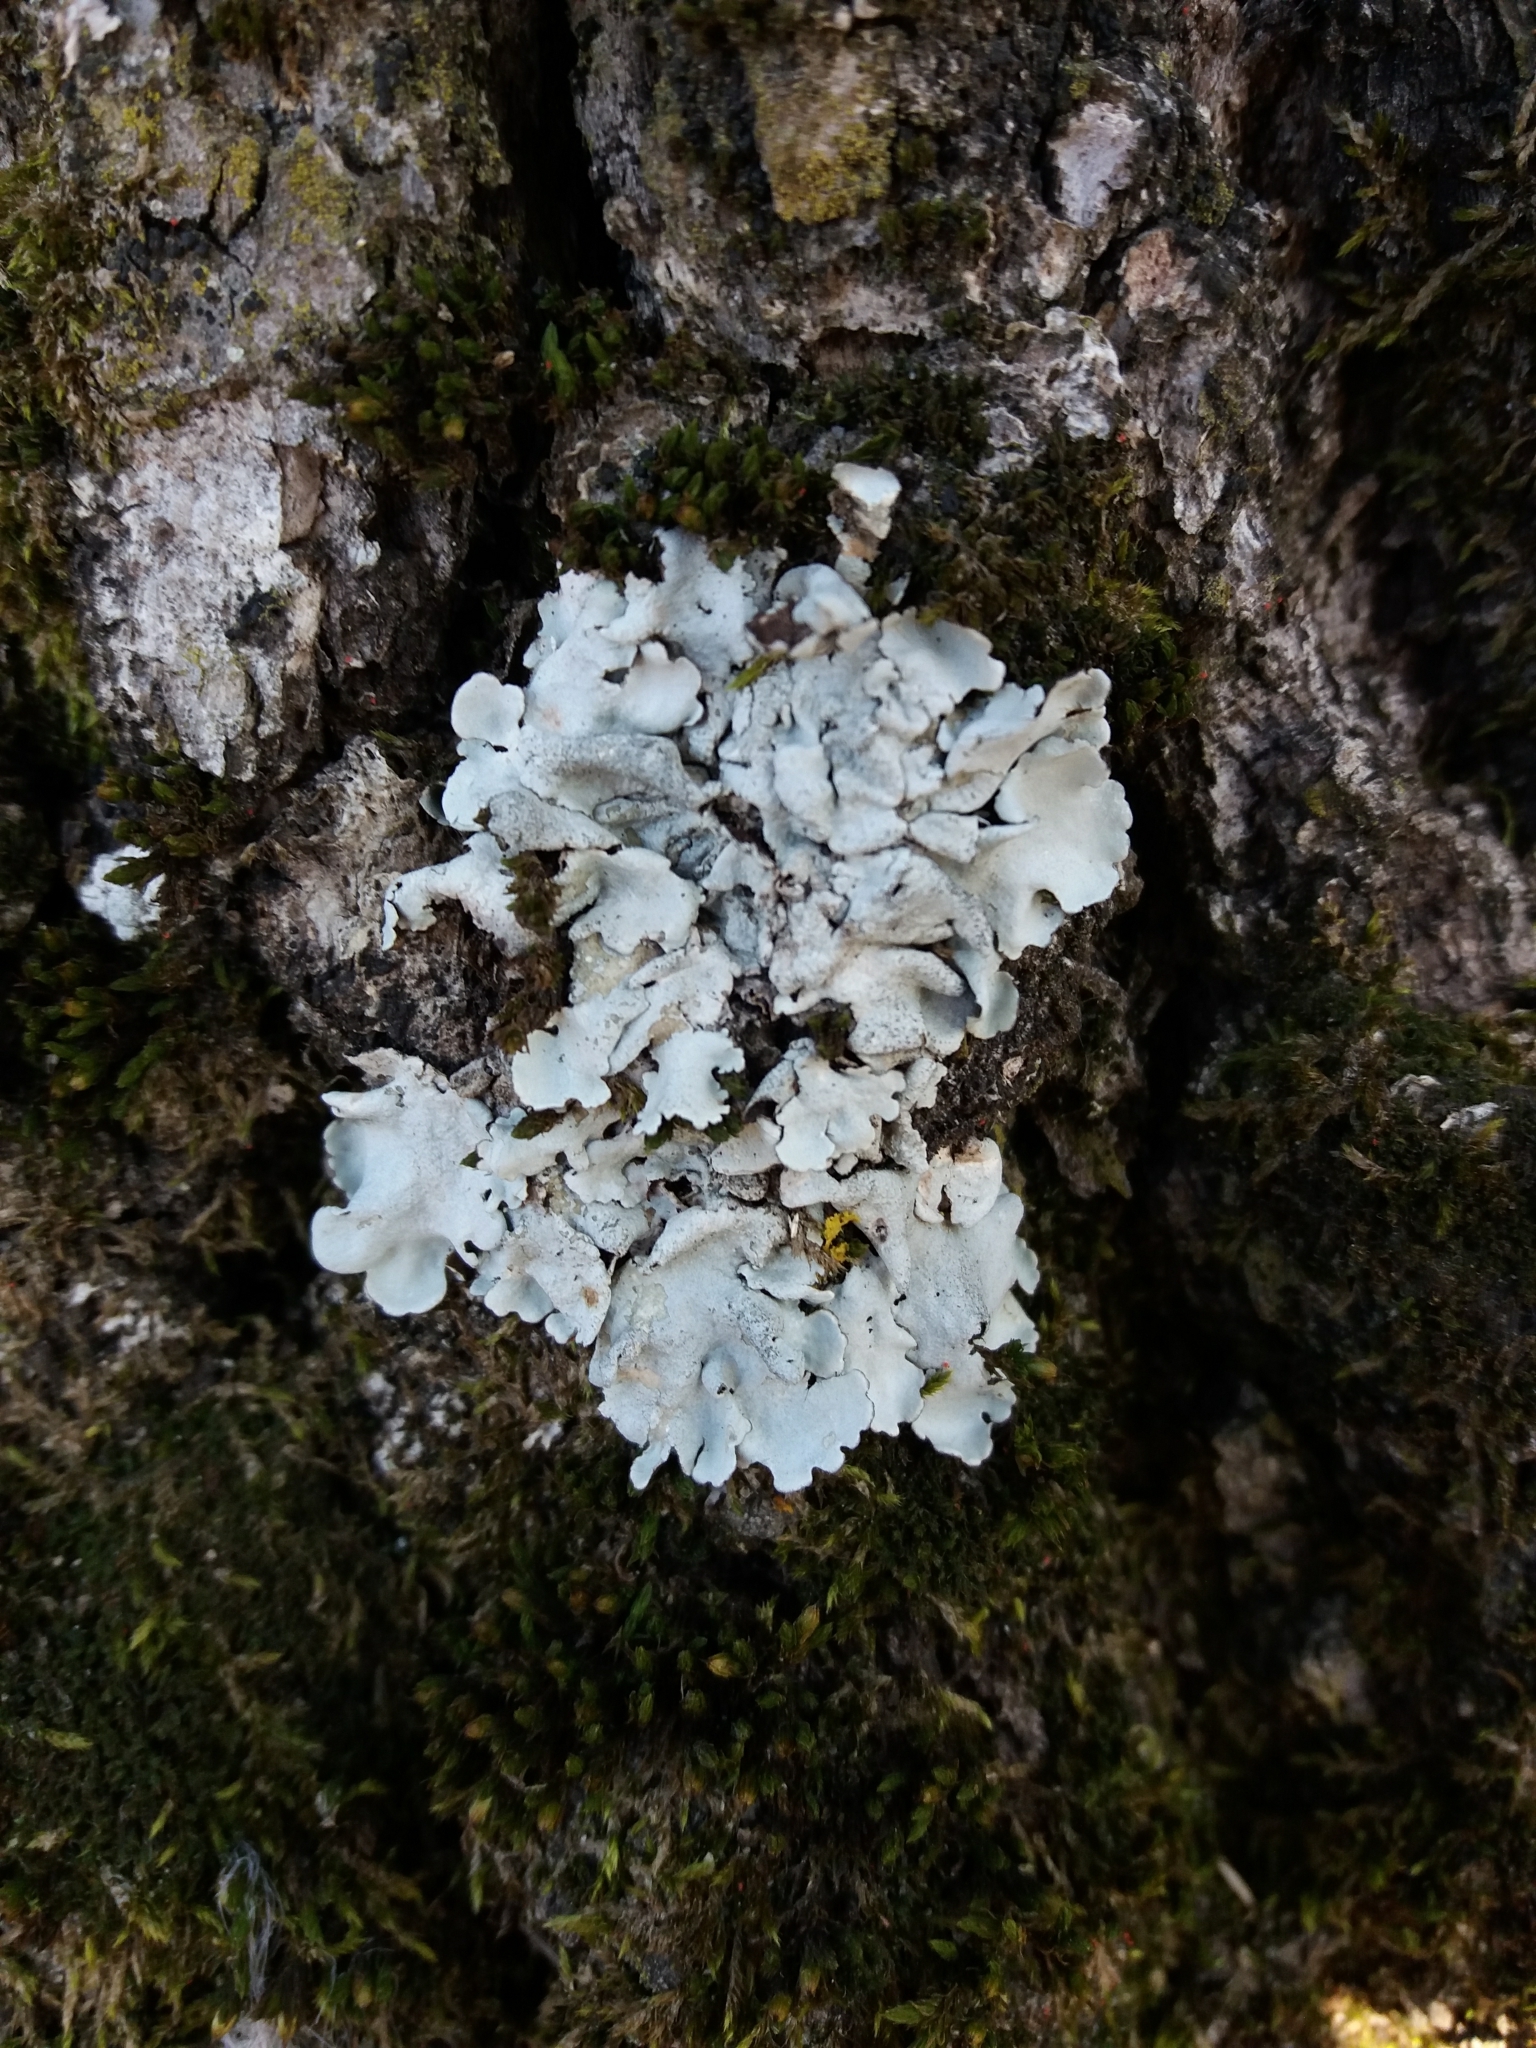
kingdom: Fungi
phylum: Ascomycota
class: Lecanoromycetes
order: Lecanorales
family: Parmeliaceae
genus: Parmelina
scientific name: Parmelina tiliacea
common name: Linden shield lichen
